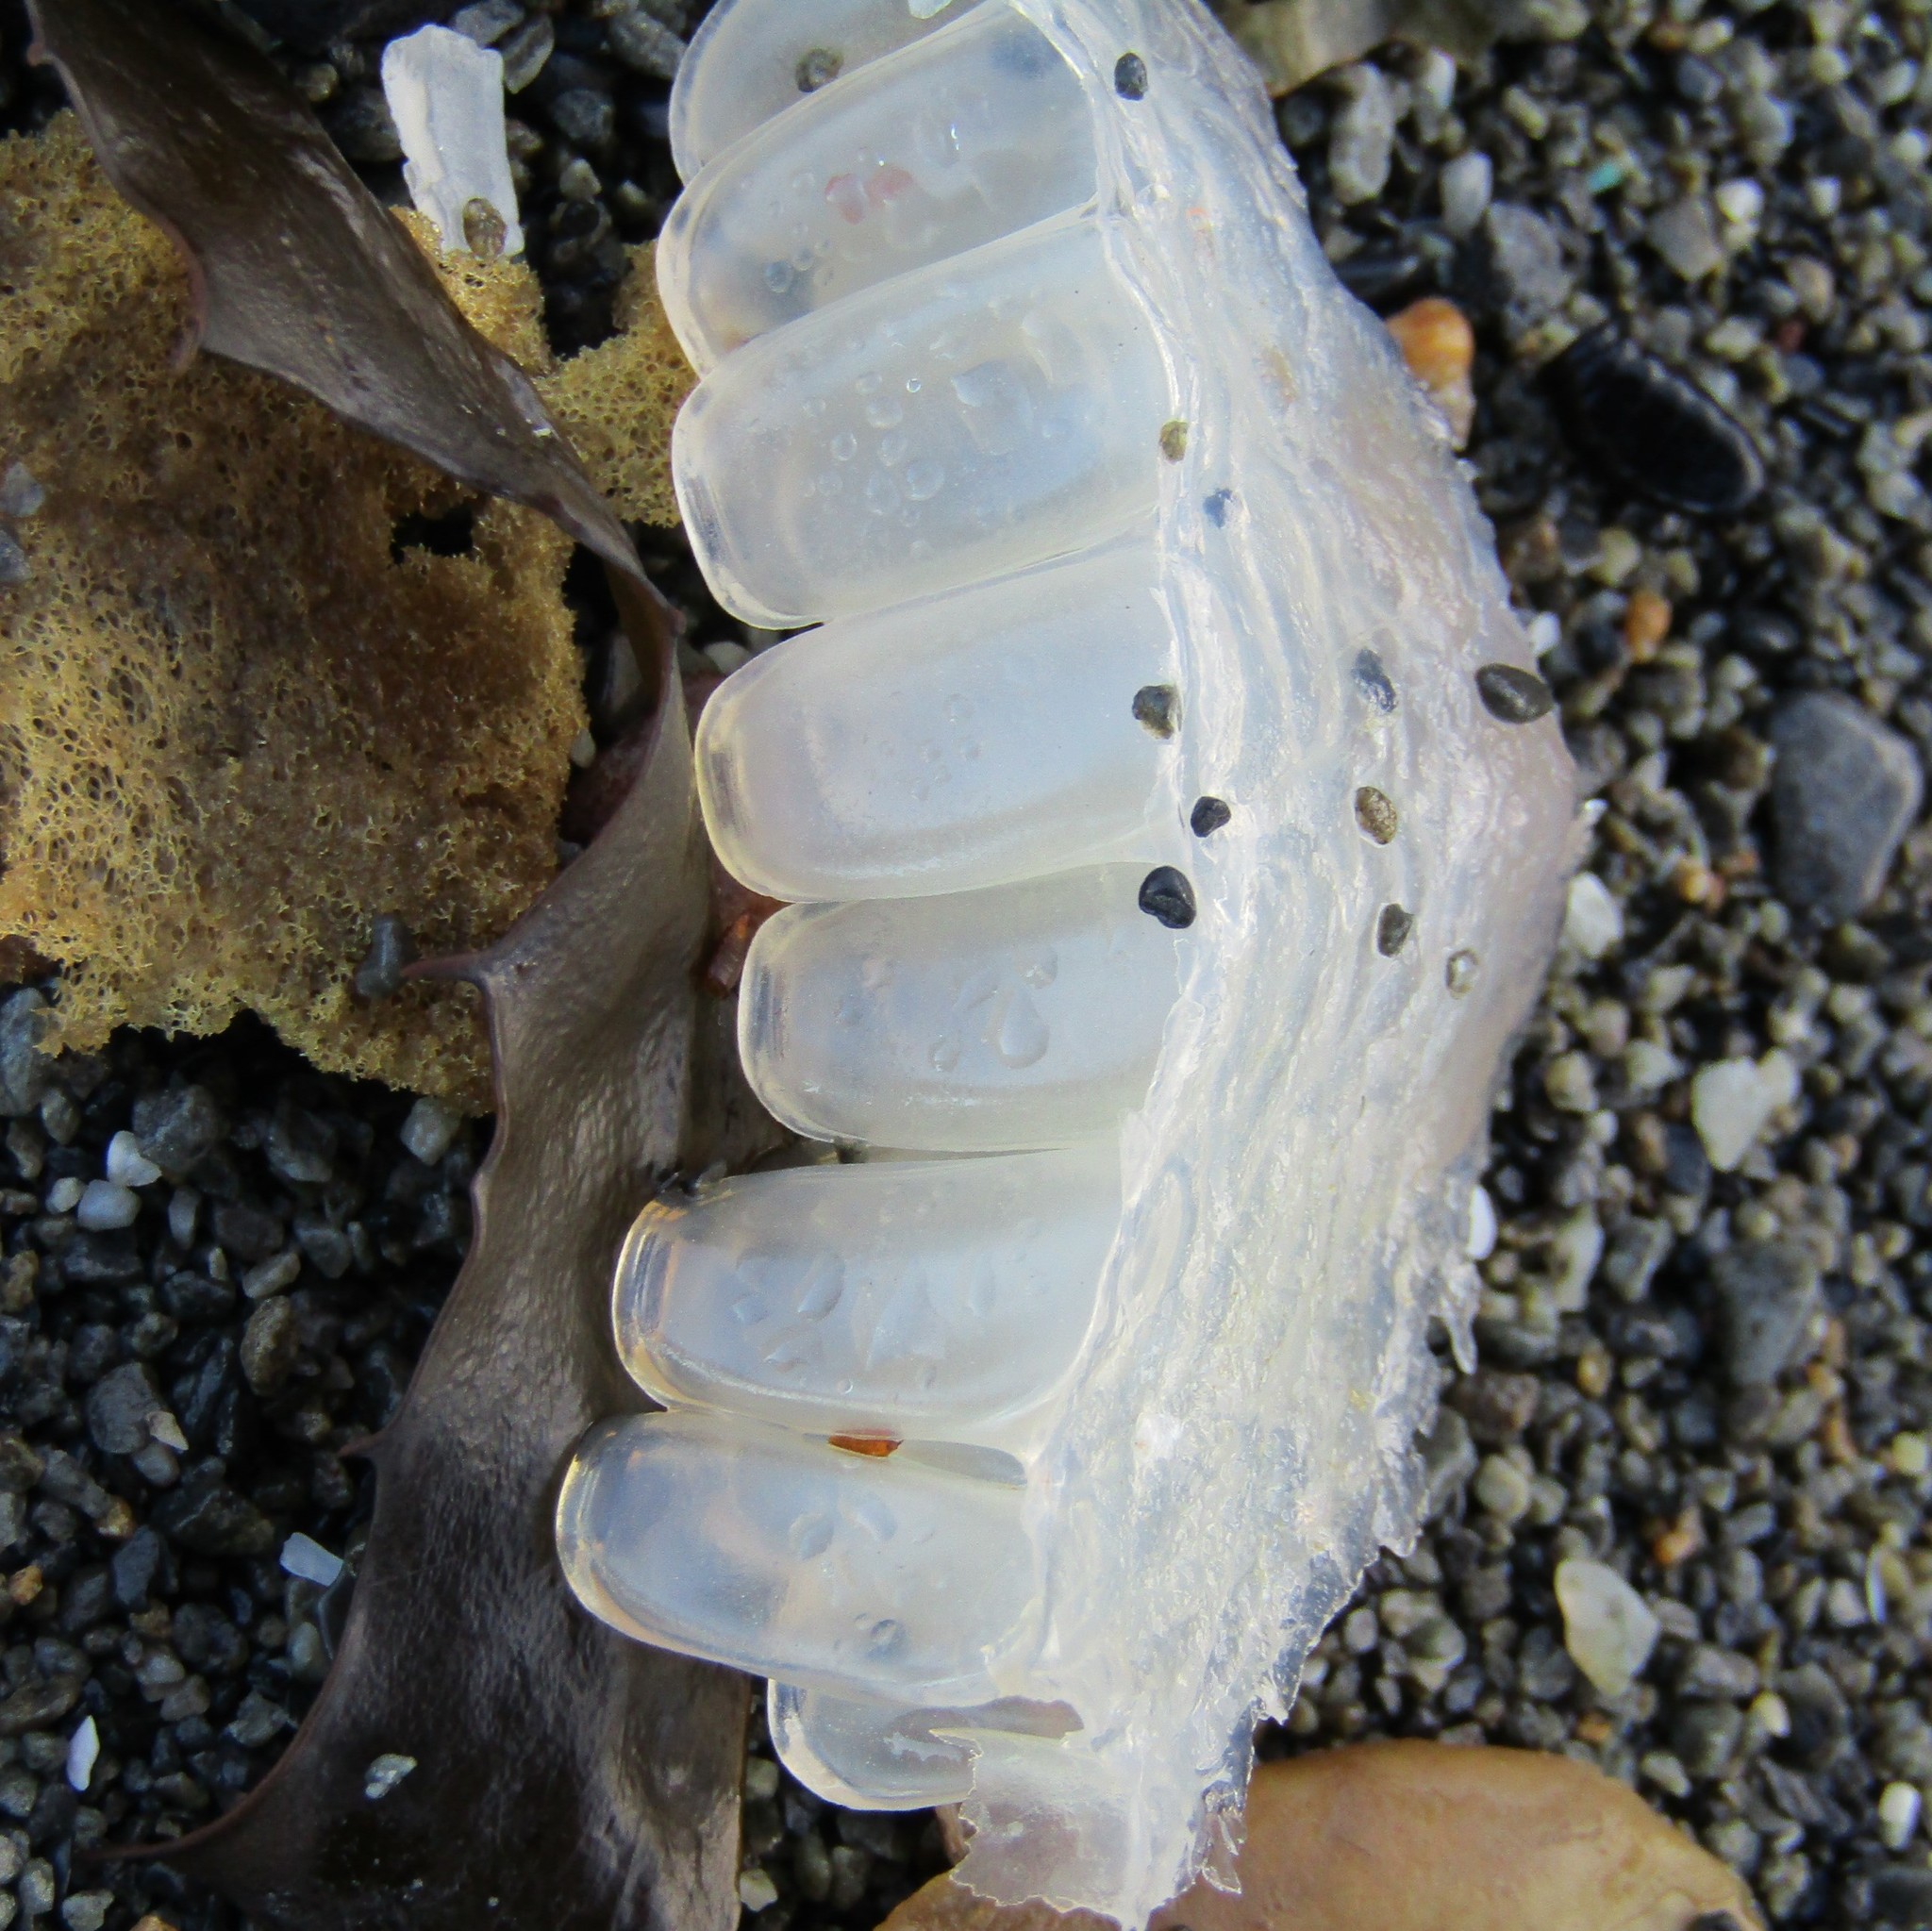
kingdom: Animalia
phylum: Mollusca
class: Gastropoda
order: Littorinimorpha
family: Ranellidae
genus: Ranella
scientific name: Ranella australasia
